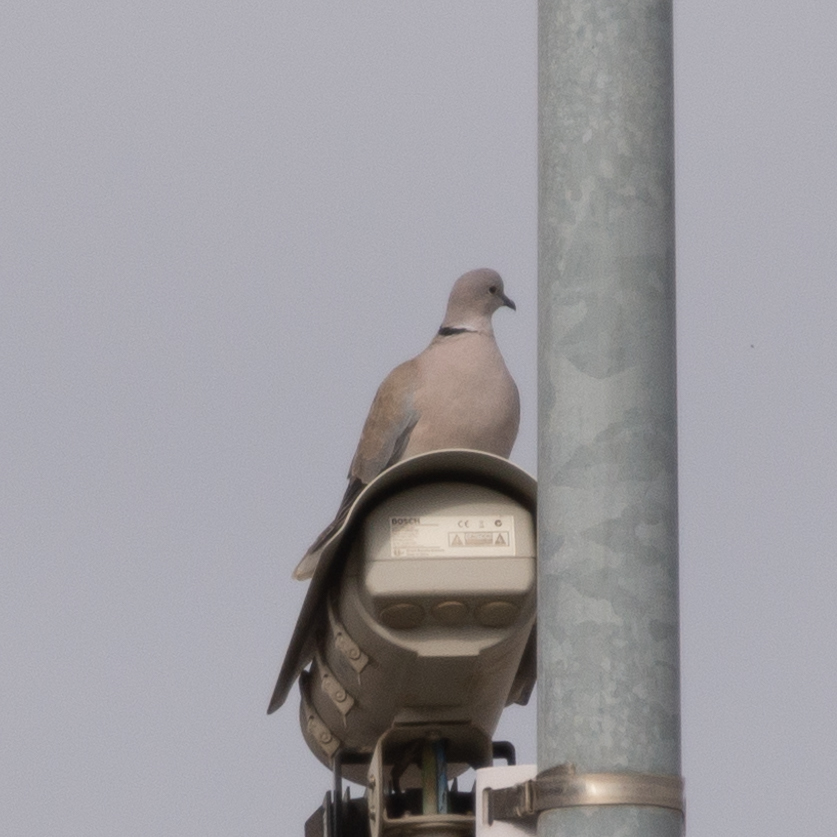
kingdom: Animalia
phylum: Chordata
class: Aves
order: Columbiformes
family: Columbidae
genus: Streptopelia
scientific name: Streptopelia decaocto
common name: Eurasian collared dove
